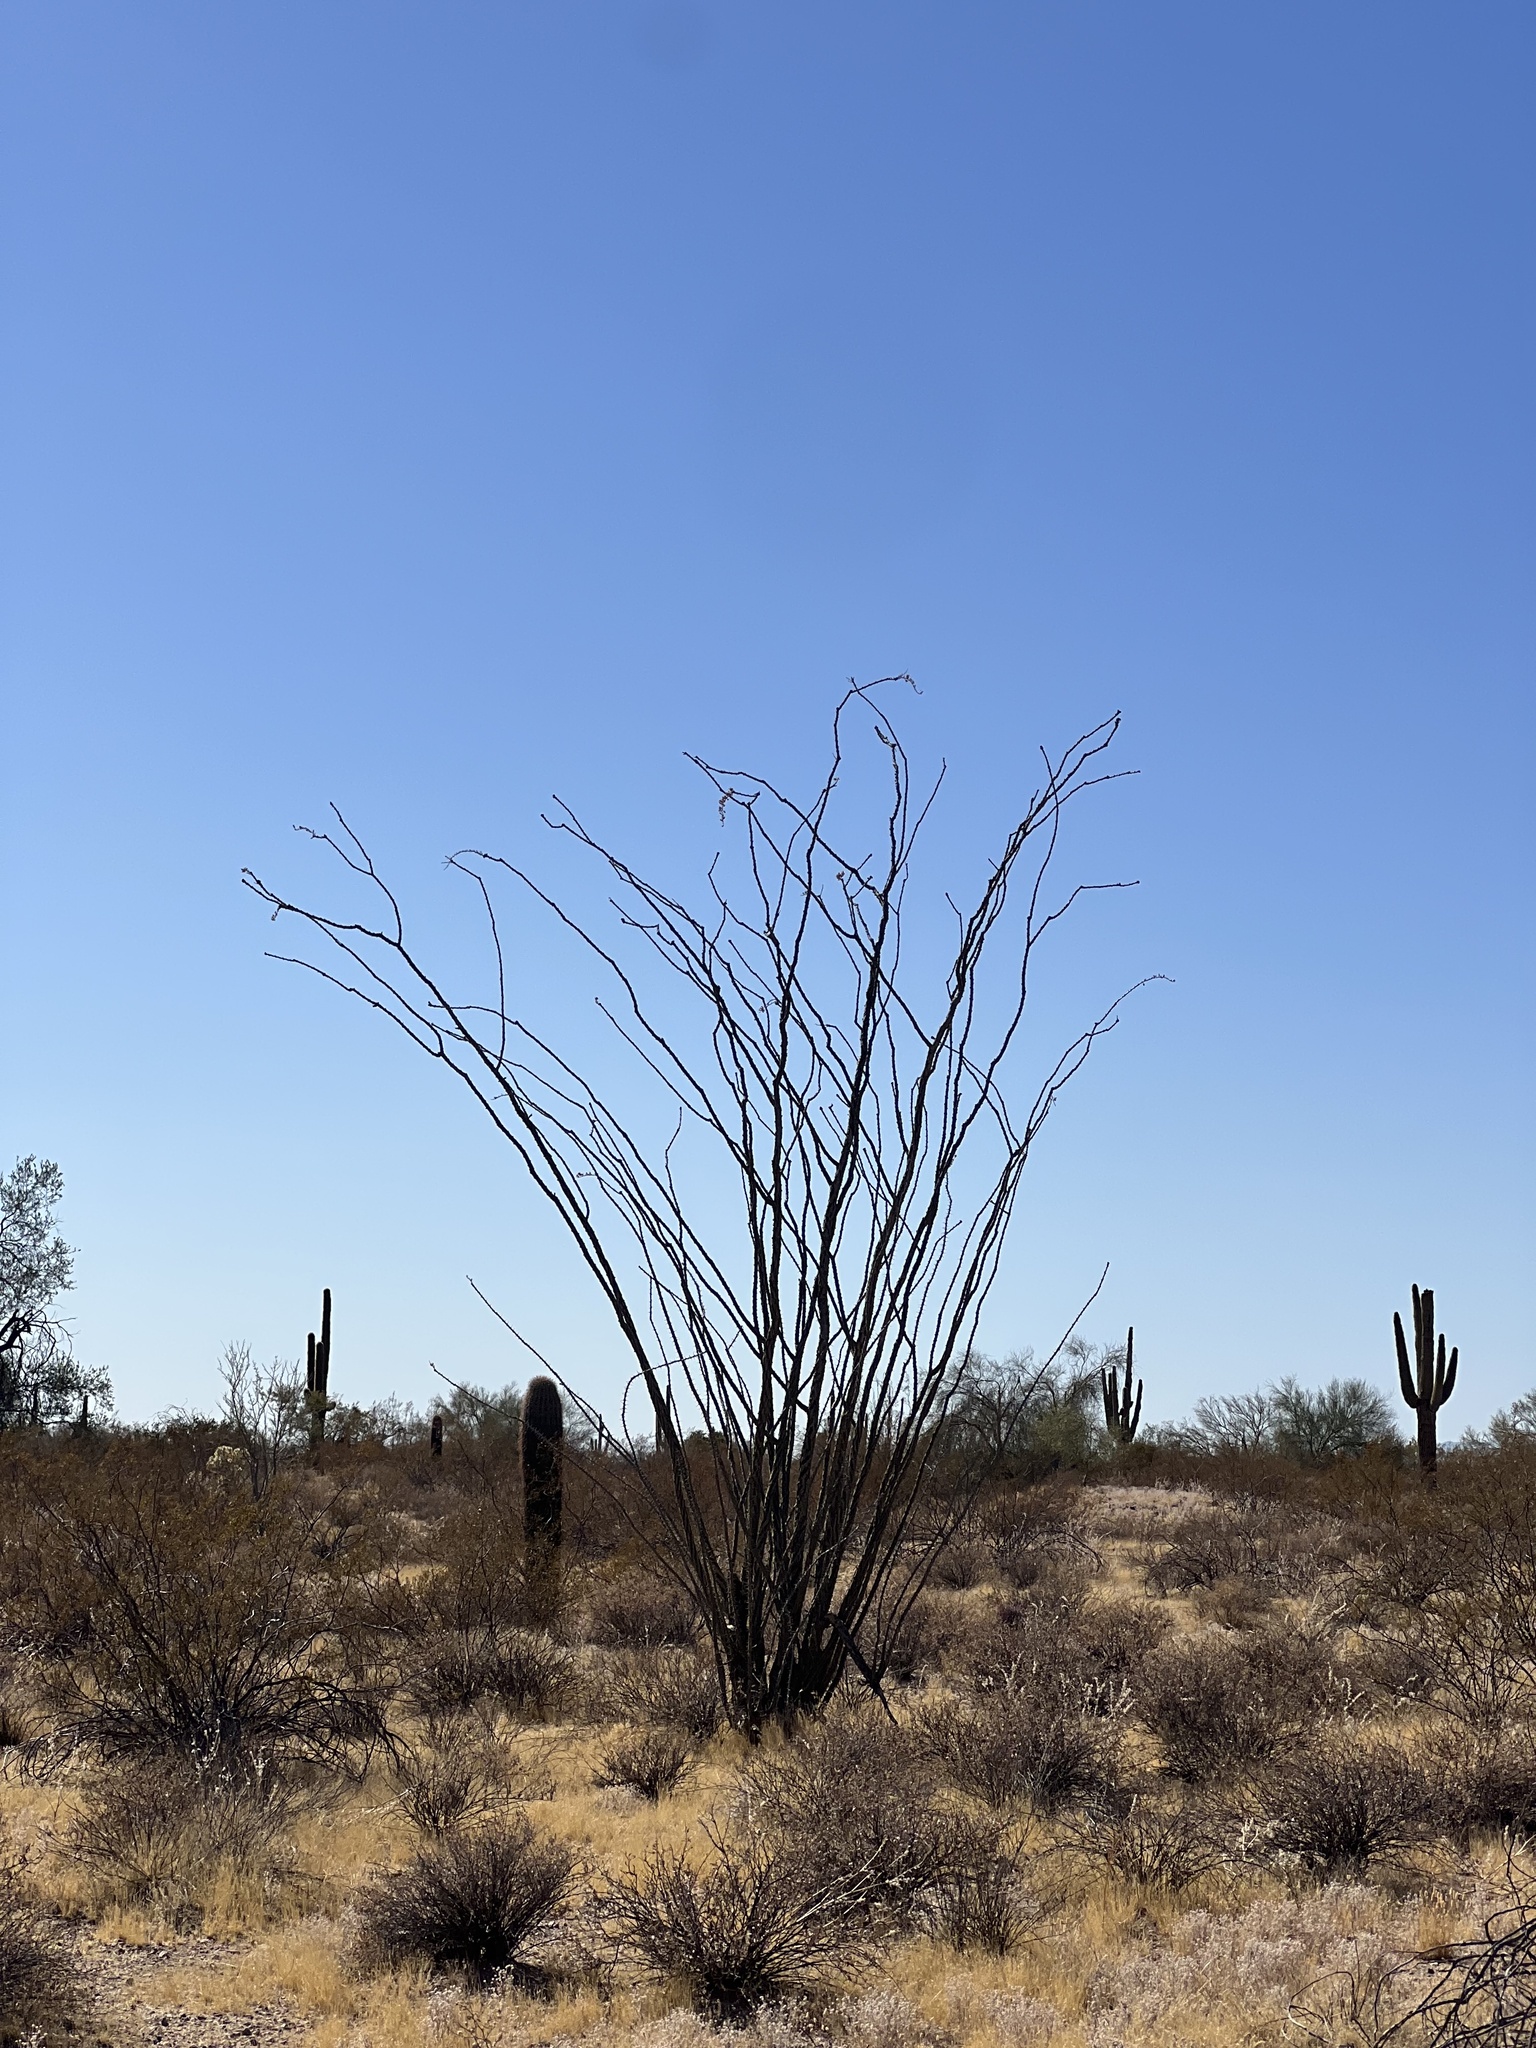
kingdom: Plantae
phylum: Tracheophyta
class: Magnoliopsida
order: Ericales
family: Fouquieriaceae
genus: Fouquieria
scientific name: Fouquieria splendens
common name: Vine-cactus
